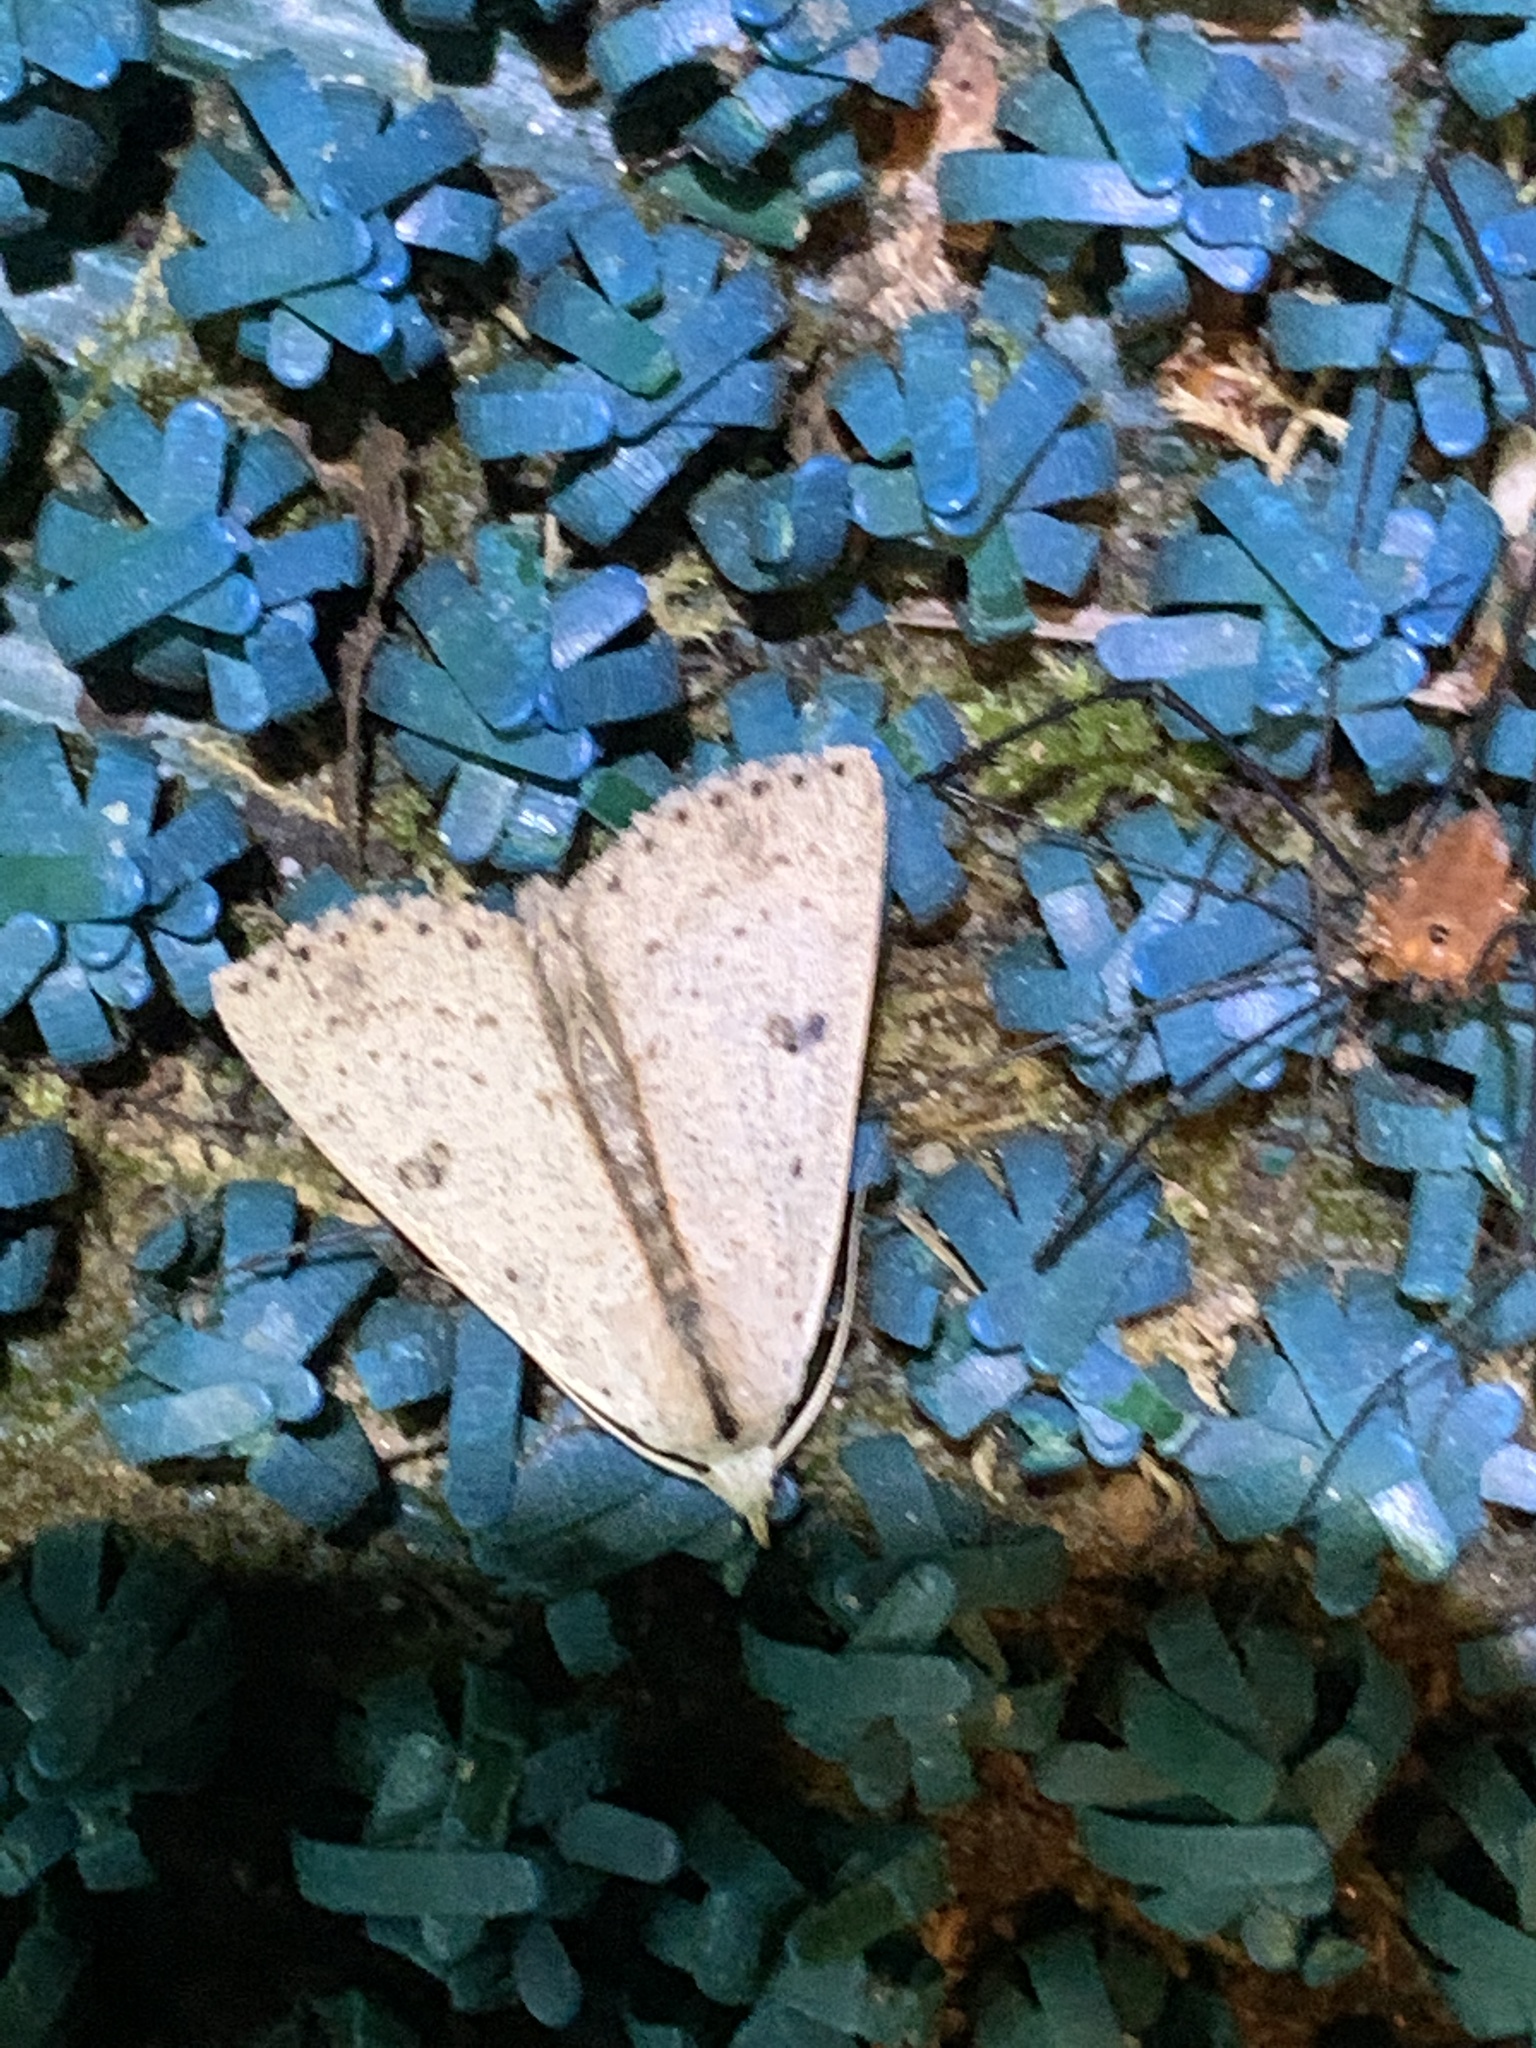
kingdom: Animalia
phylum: Arthropoda
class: Insecta
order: Lepidoptera
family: Erebidae
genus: Scolecocampa
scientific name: Scolecocampa liburna
